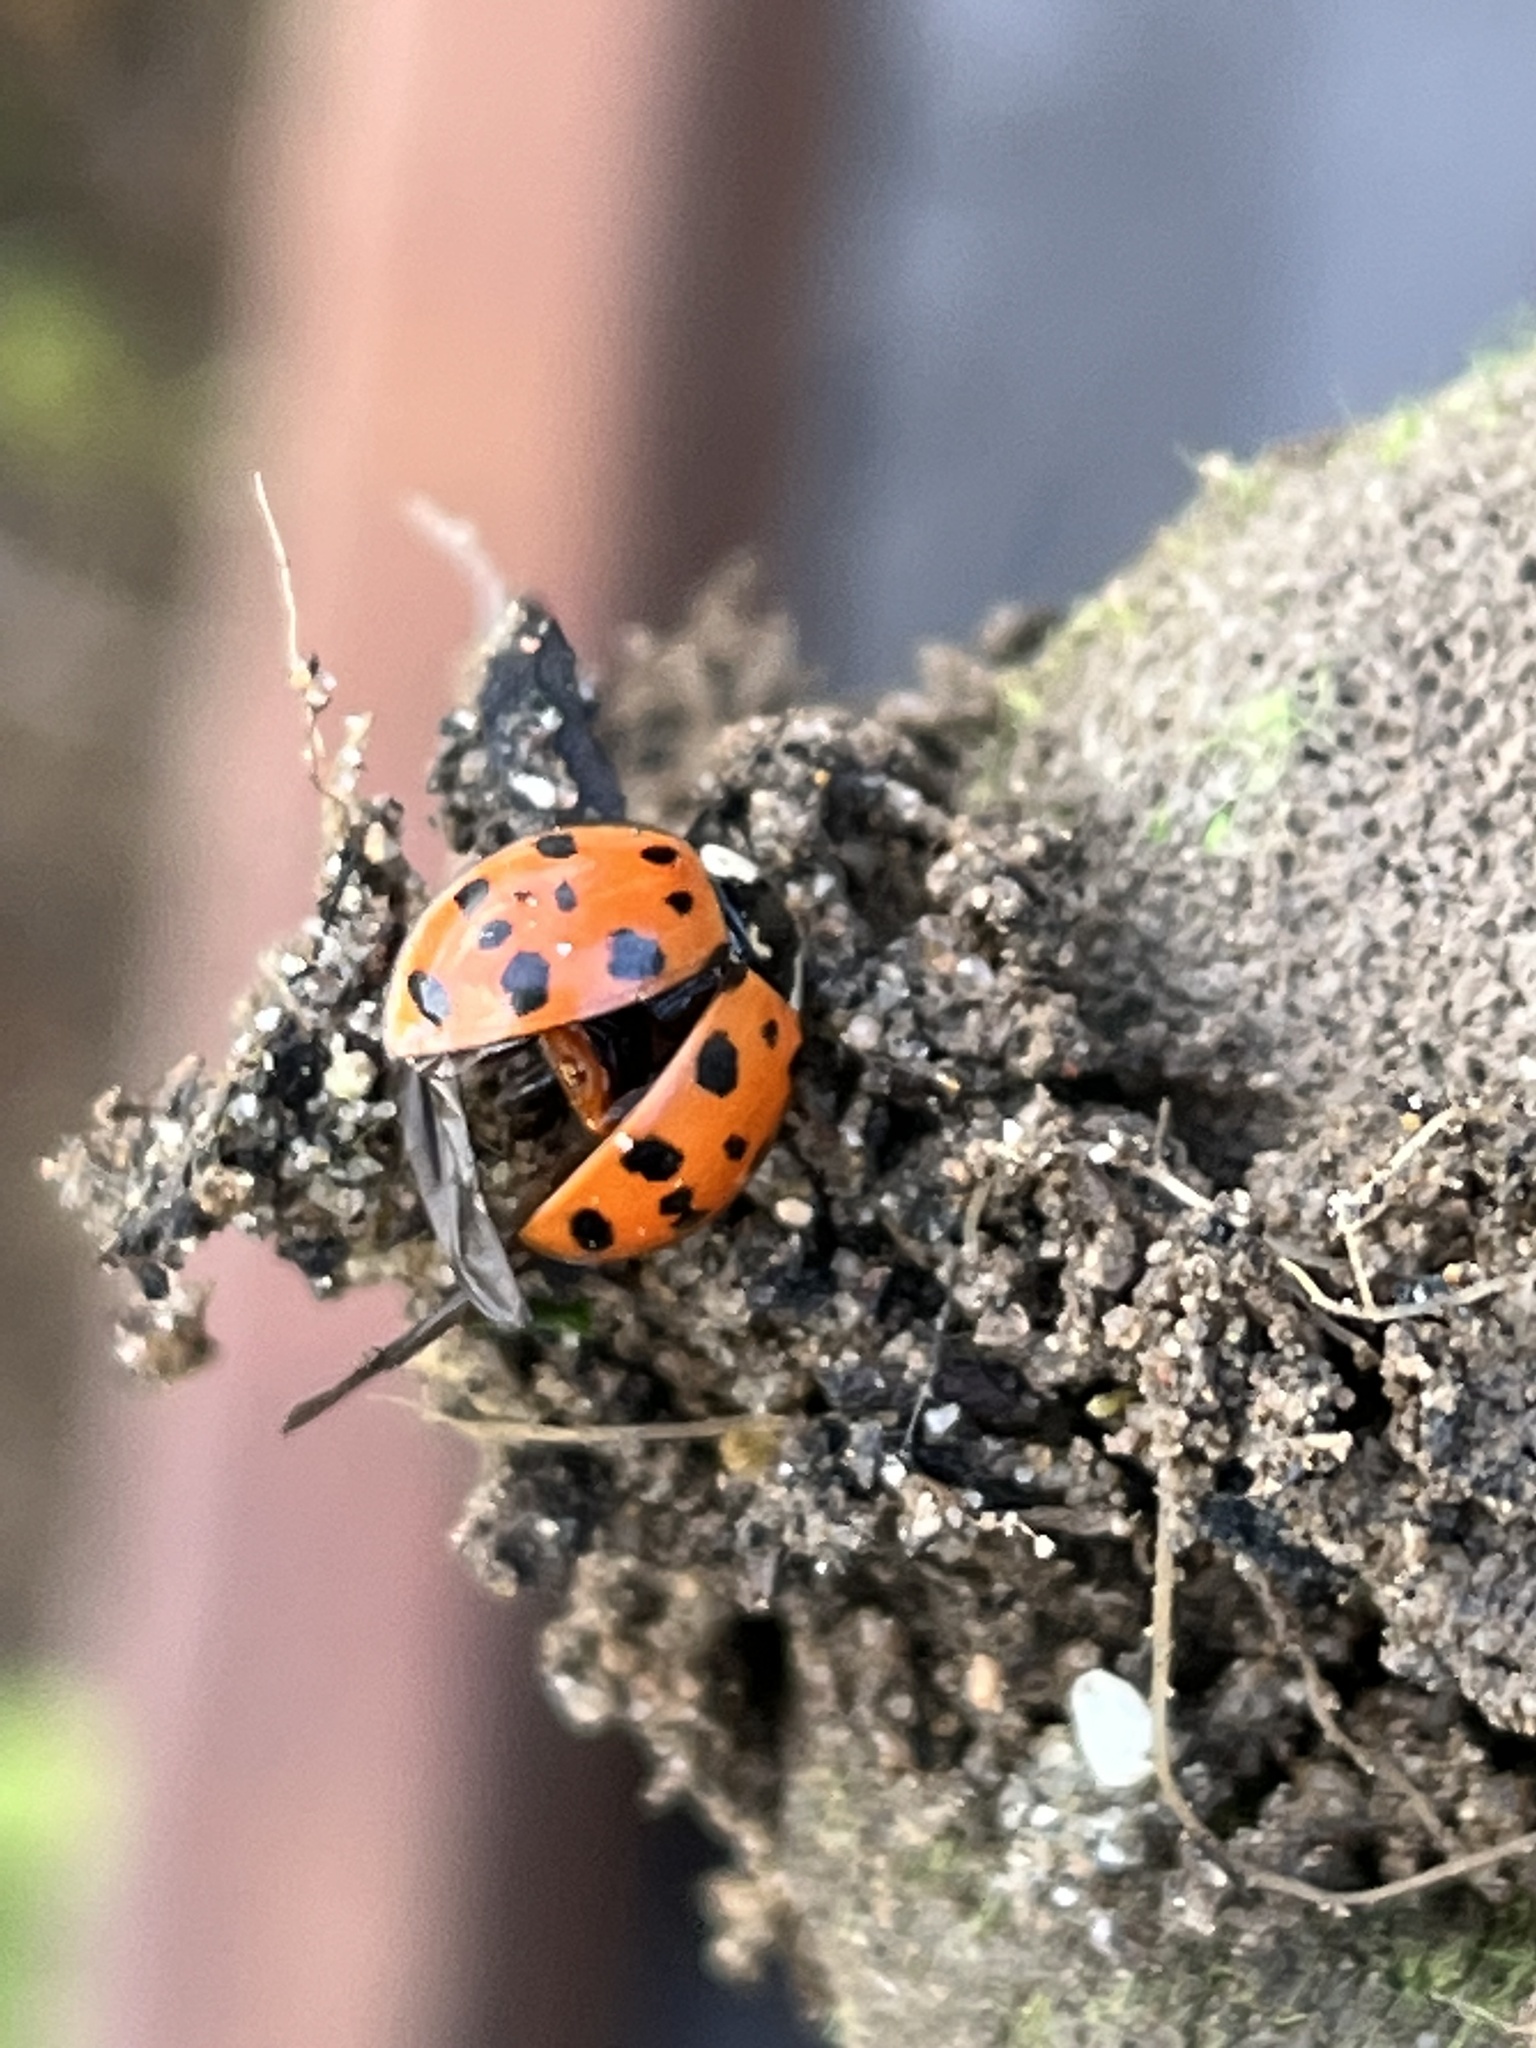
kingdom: Animalia
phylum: Arthropoda
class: Insecta
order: Coleoptera
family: Coccinellidae
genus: Harmonia
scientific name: Harmonia axyridis
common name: Harlequin ladybird
